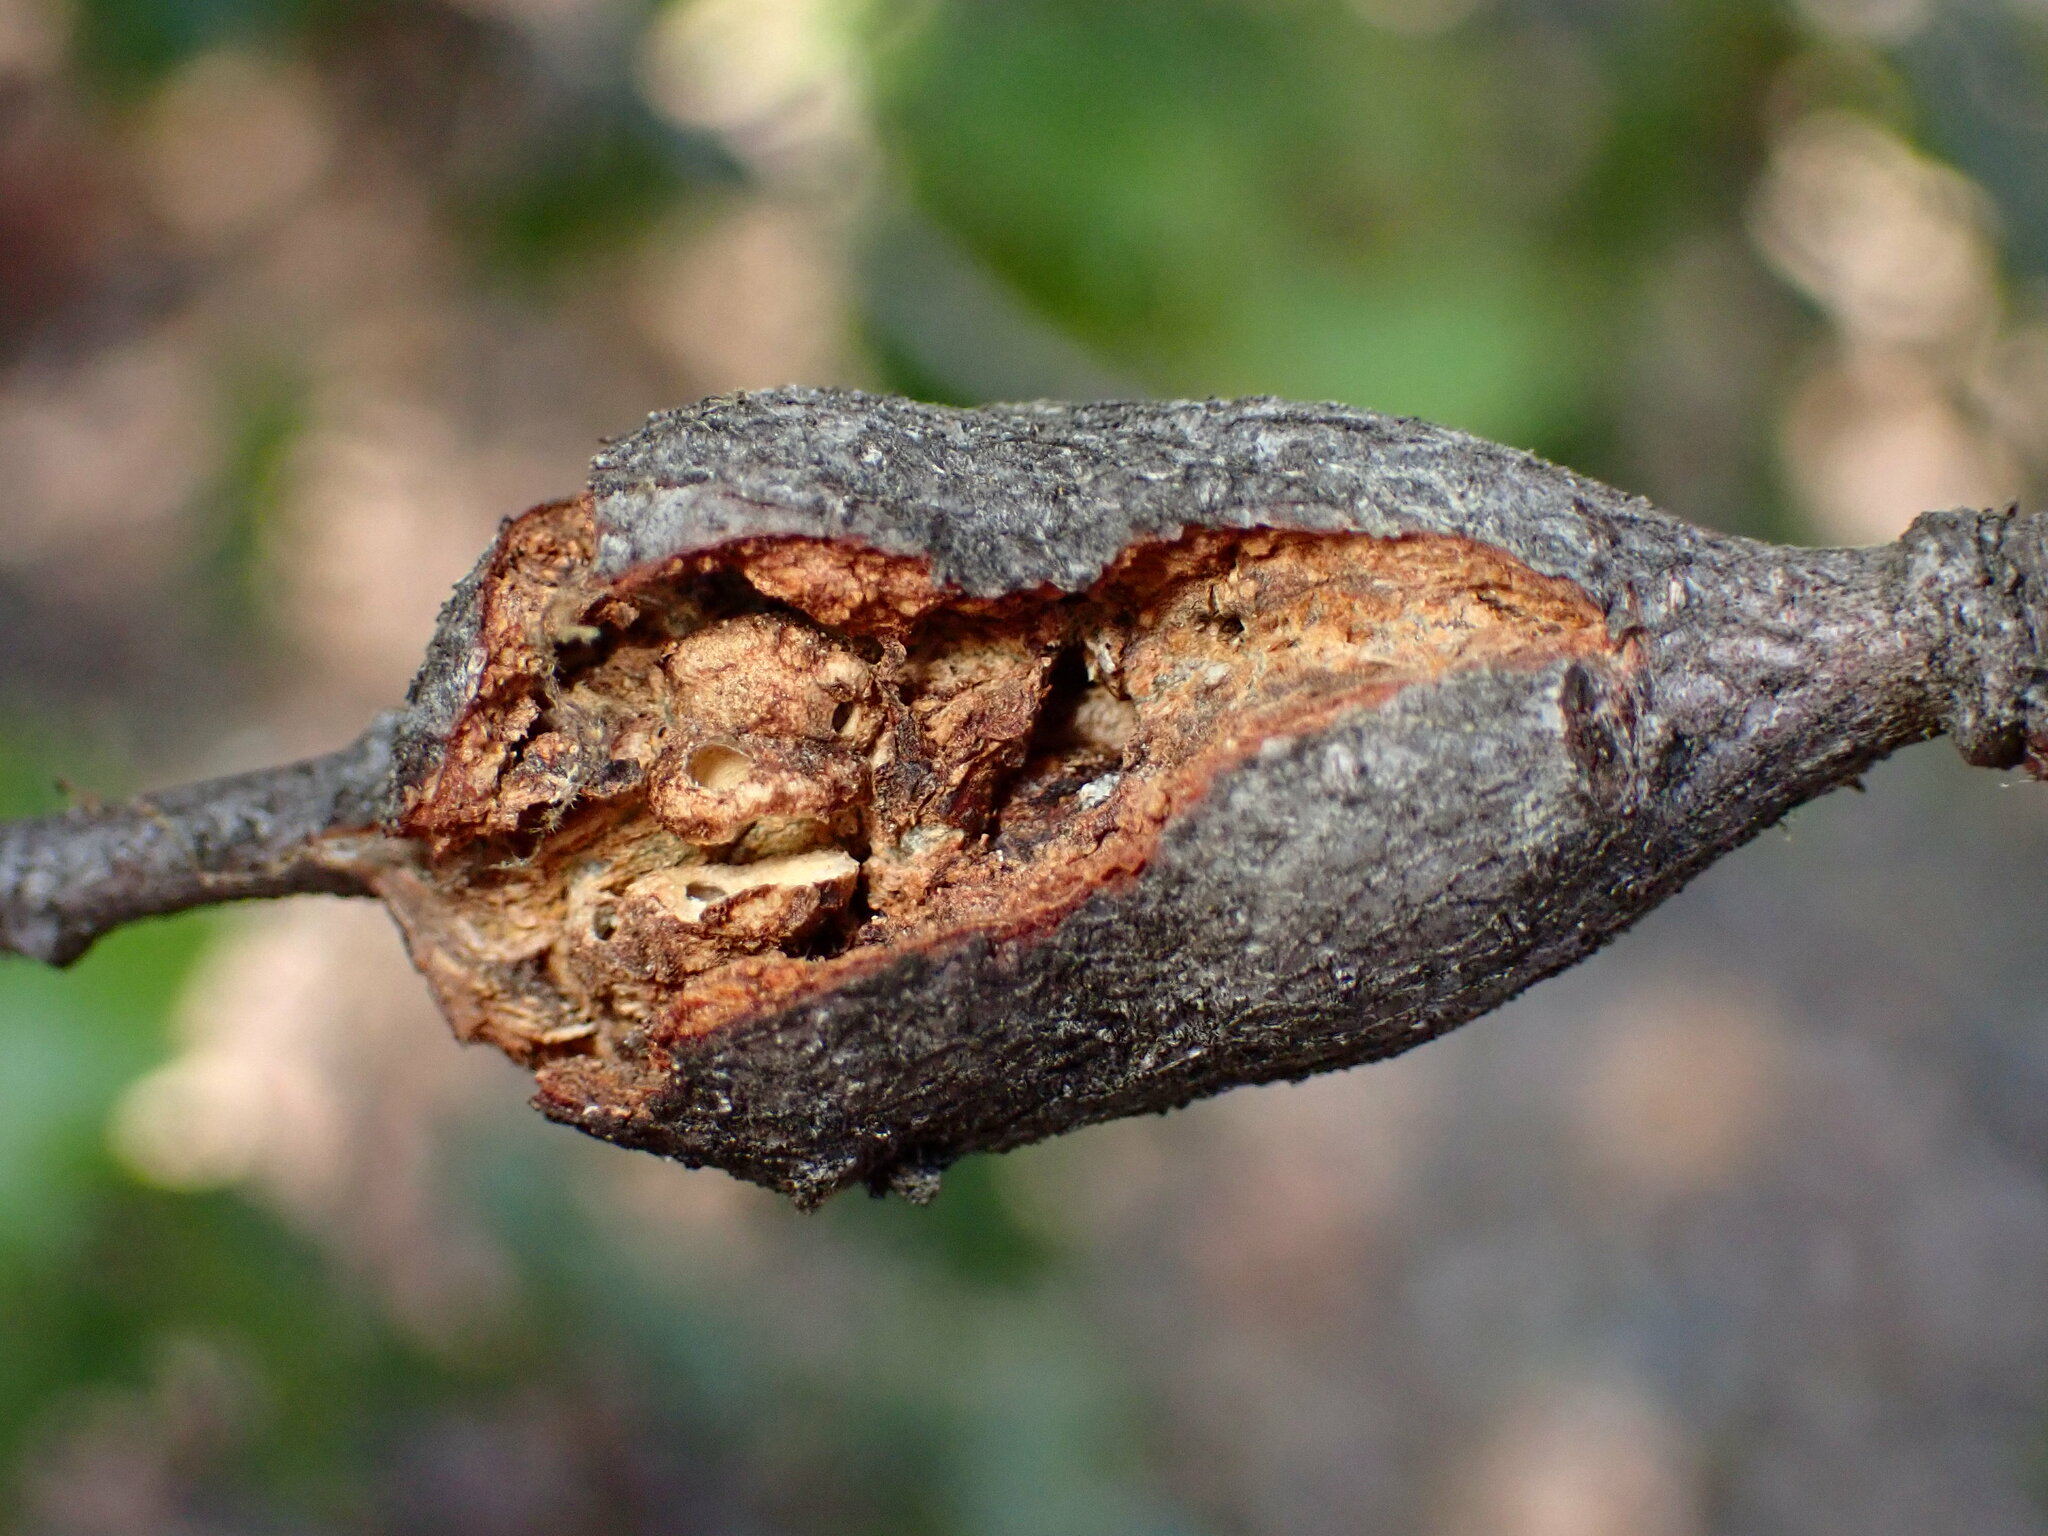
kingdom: Animalia
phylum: Arthropoda
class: Insecta
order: Hymenoptera
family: Cynipidae
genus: Dryocosmus
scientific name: Dryocosmus
